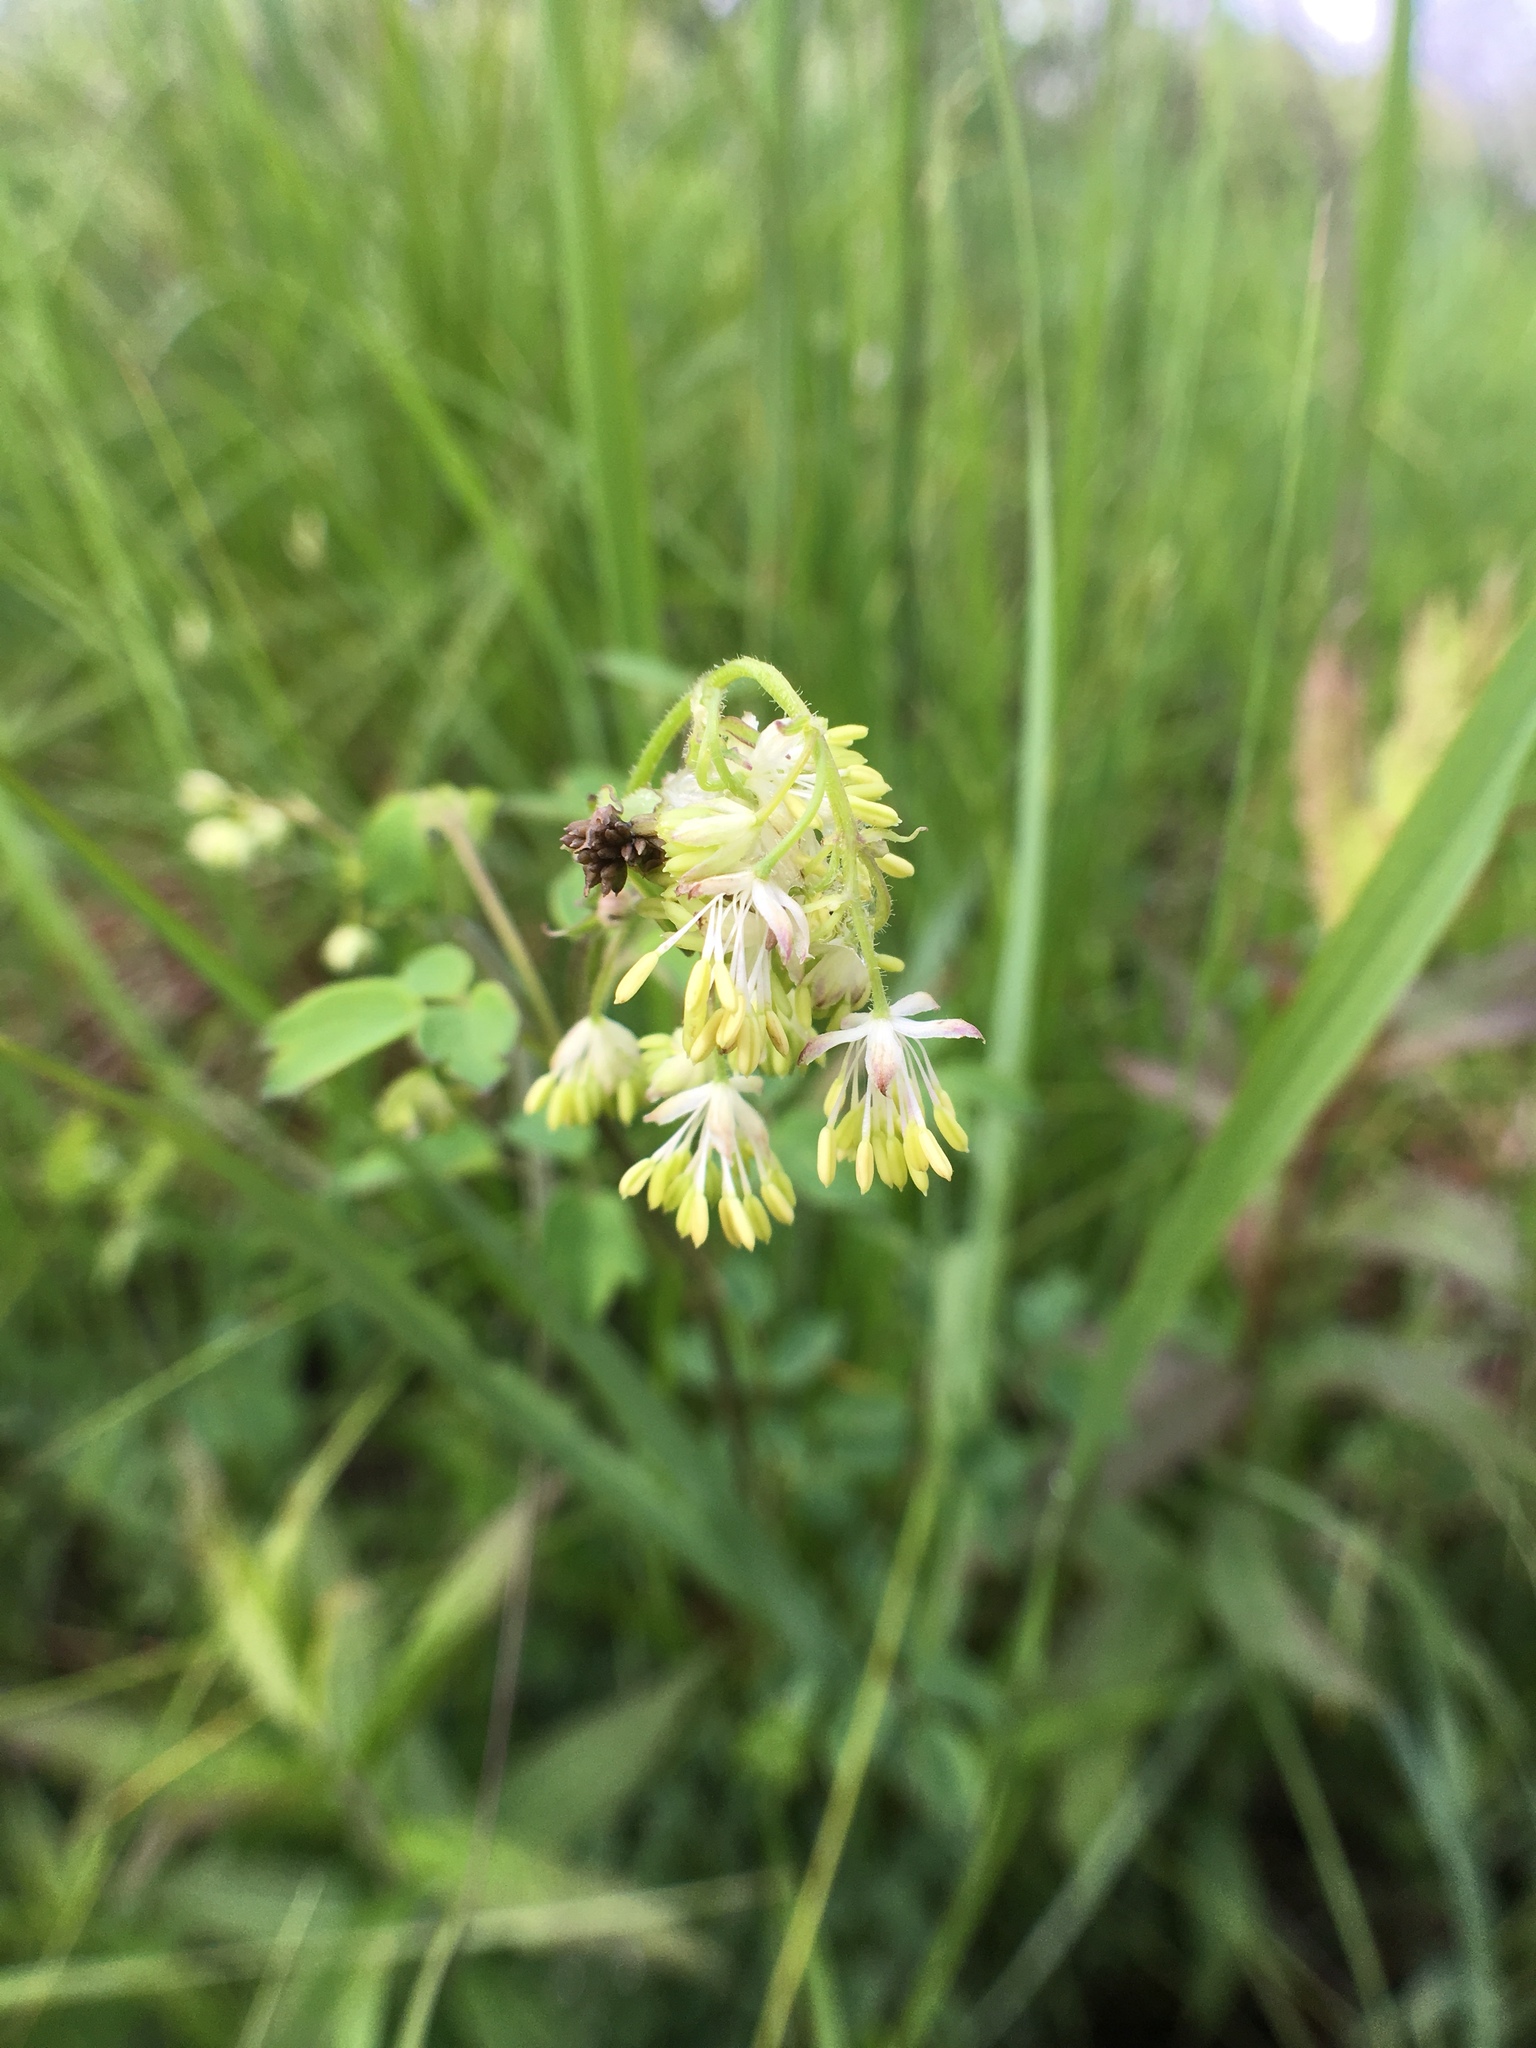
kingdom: Plantae
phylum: Tracheophyta
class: Magnoliopsida
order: Ranunculales
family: Ranunculaceae
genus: Thalictrum
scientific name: Thalictrum dasycarpum
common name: Purple meadow-rue
